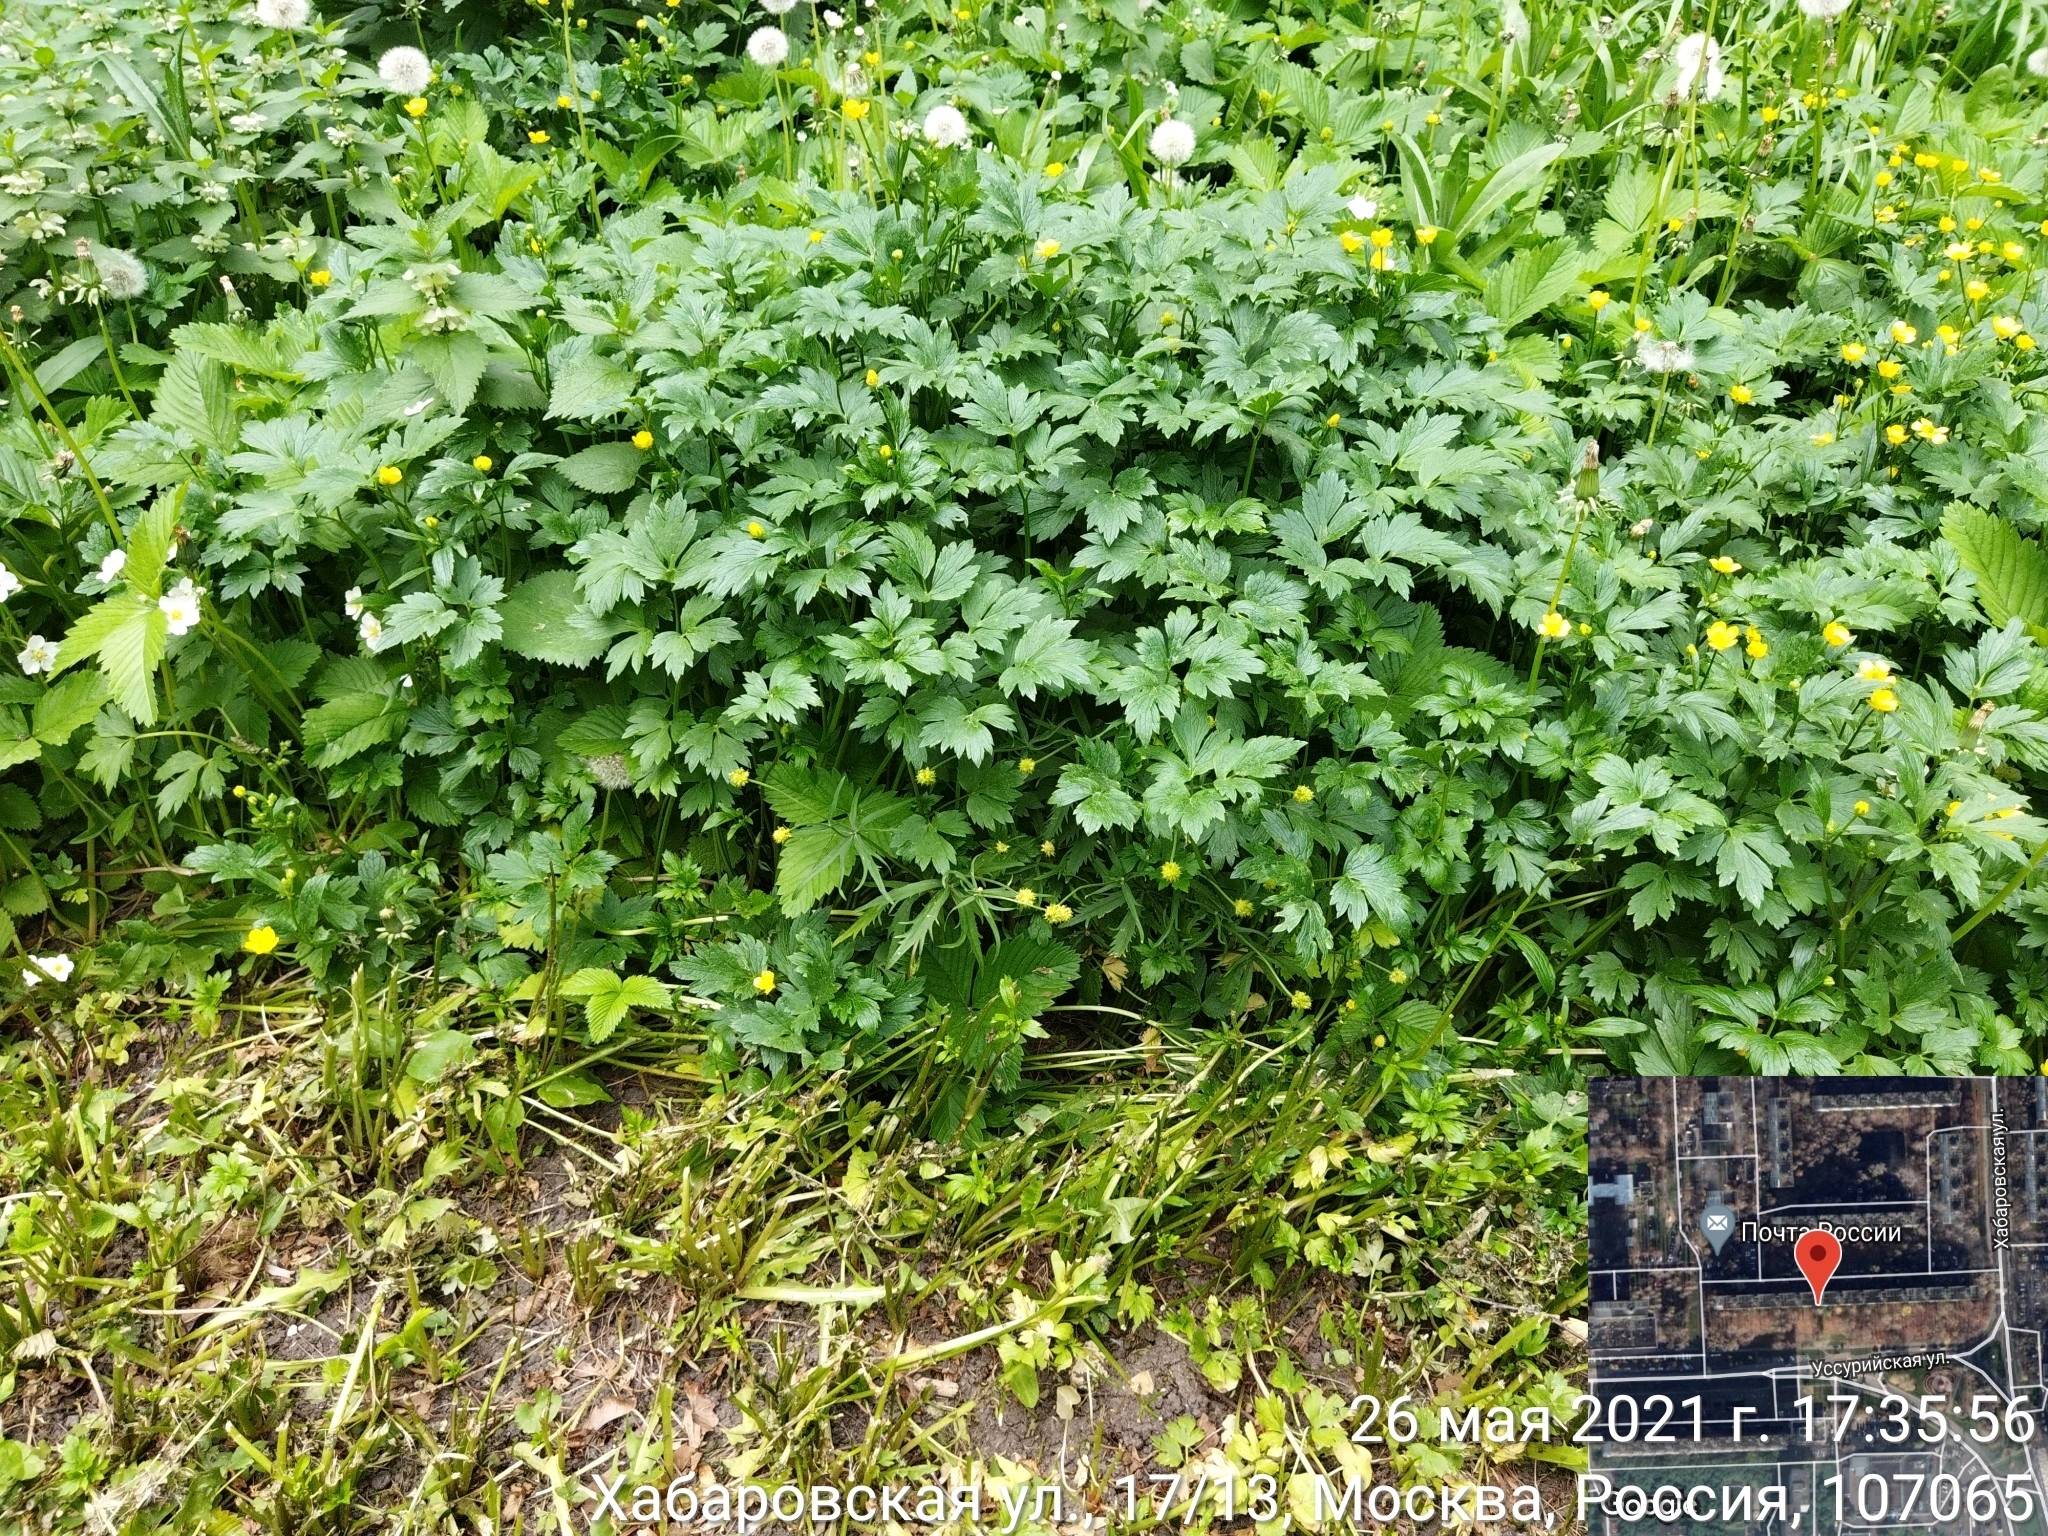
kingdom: Plantae
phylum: Tracheophyta
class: Magnoliopsida
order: Ranunculales
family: Ranunculaceae
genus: Ranunculus
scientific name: Ranunculus repens
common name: Creeping buttercup
